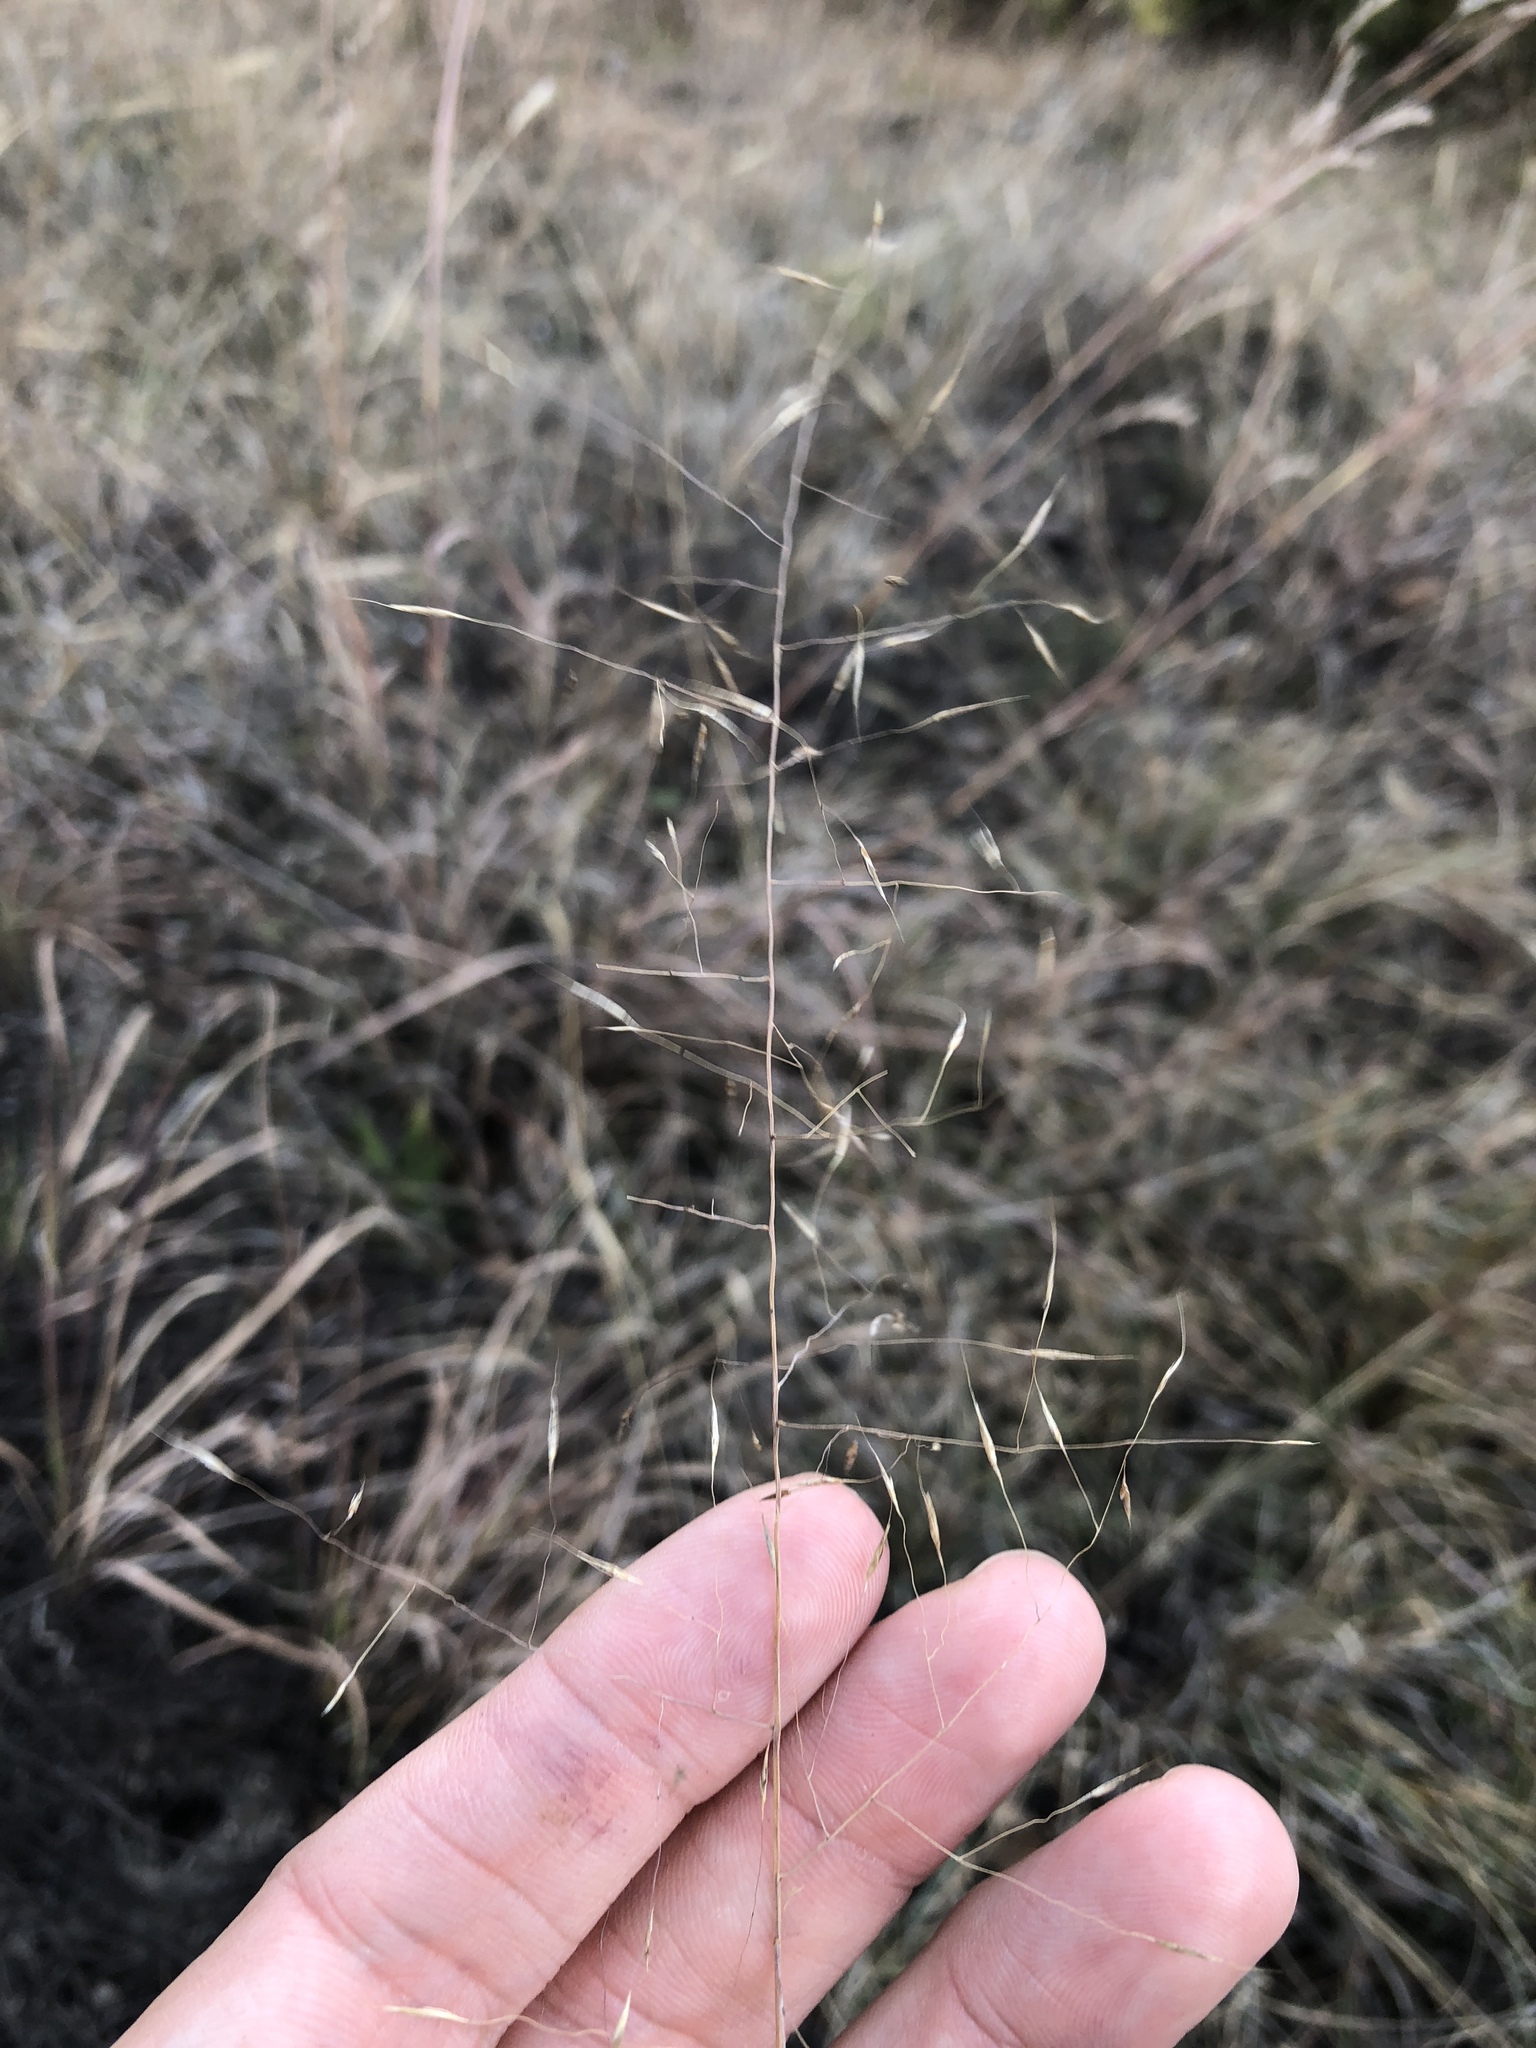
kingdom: Plantae
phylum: Tracheophyta
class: Liliopsida
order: Poales
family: Poaceae
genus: Muhlenbergia
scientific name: Muhlenbergia reverchonii
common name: Seep muhly
